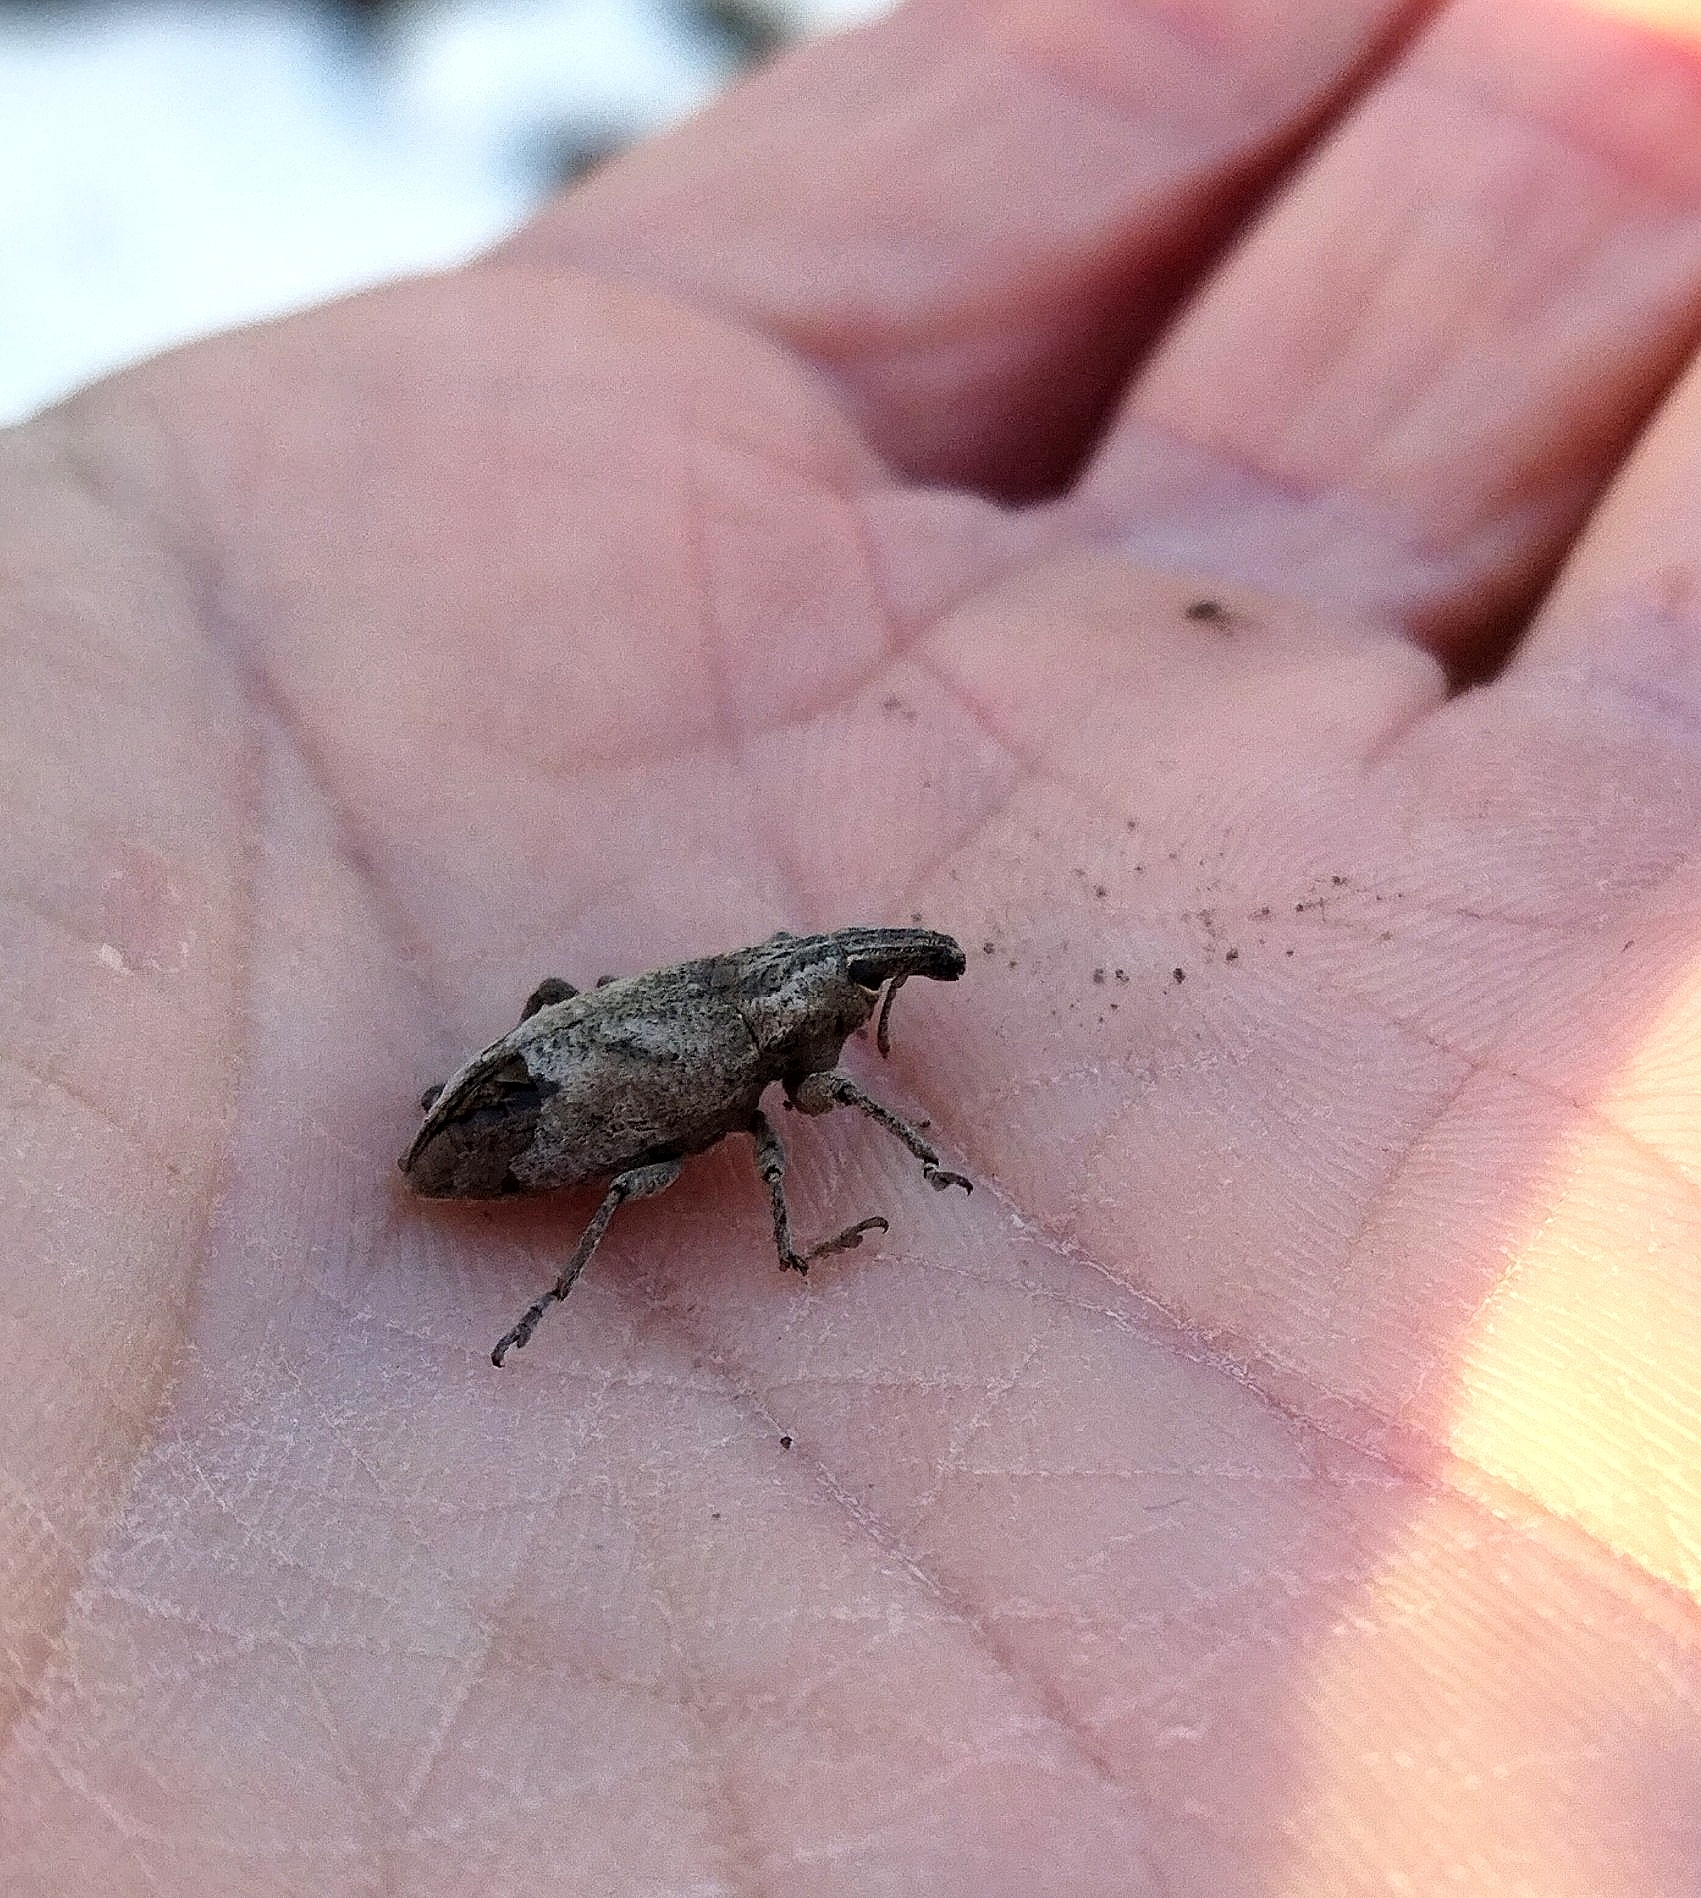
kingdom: Animalia
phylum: Arthropoda
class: Insecta
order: Coleoptera
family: Curculionidae
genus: Cleonis
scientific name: Cleonis pigra
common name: Large thistle weevil
